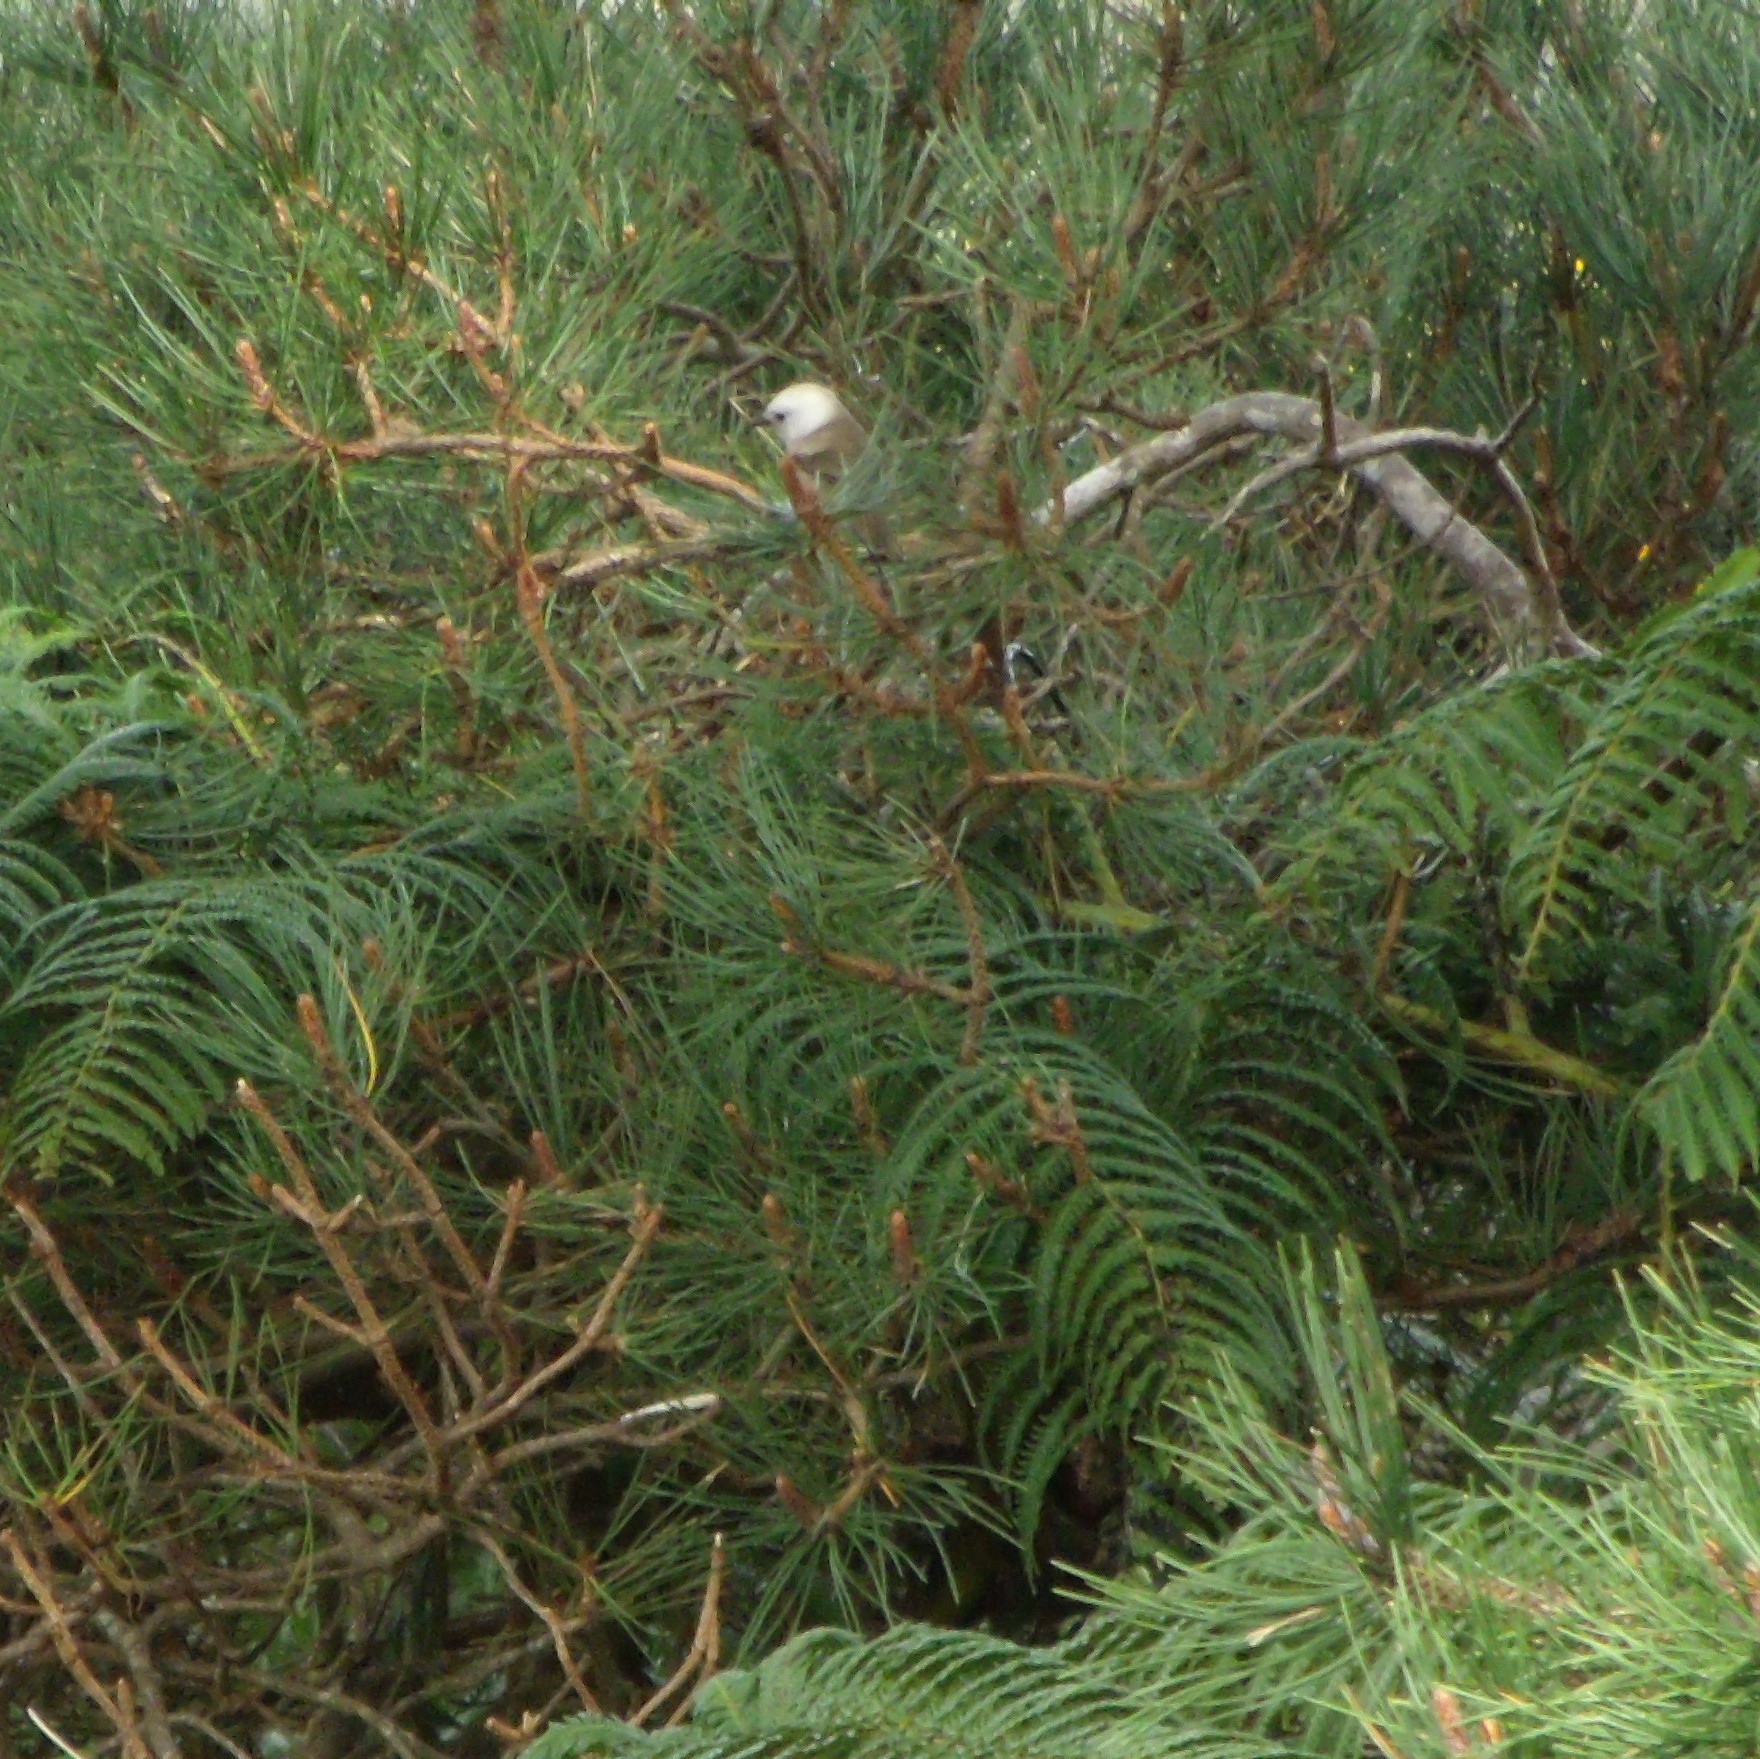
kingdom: Animalia
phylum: Chordata
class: Aves
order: Passeriformes
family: Acanthizidae
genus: Mohoua
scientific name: Mohoua albicilla
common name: Whitehead
